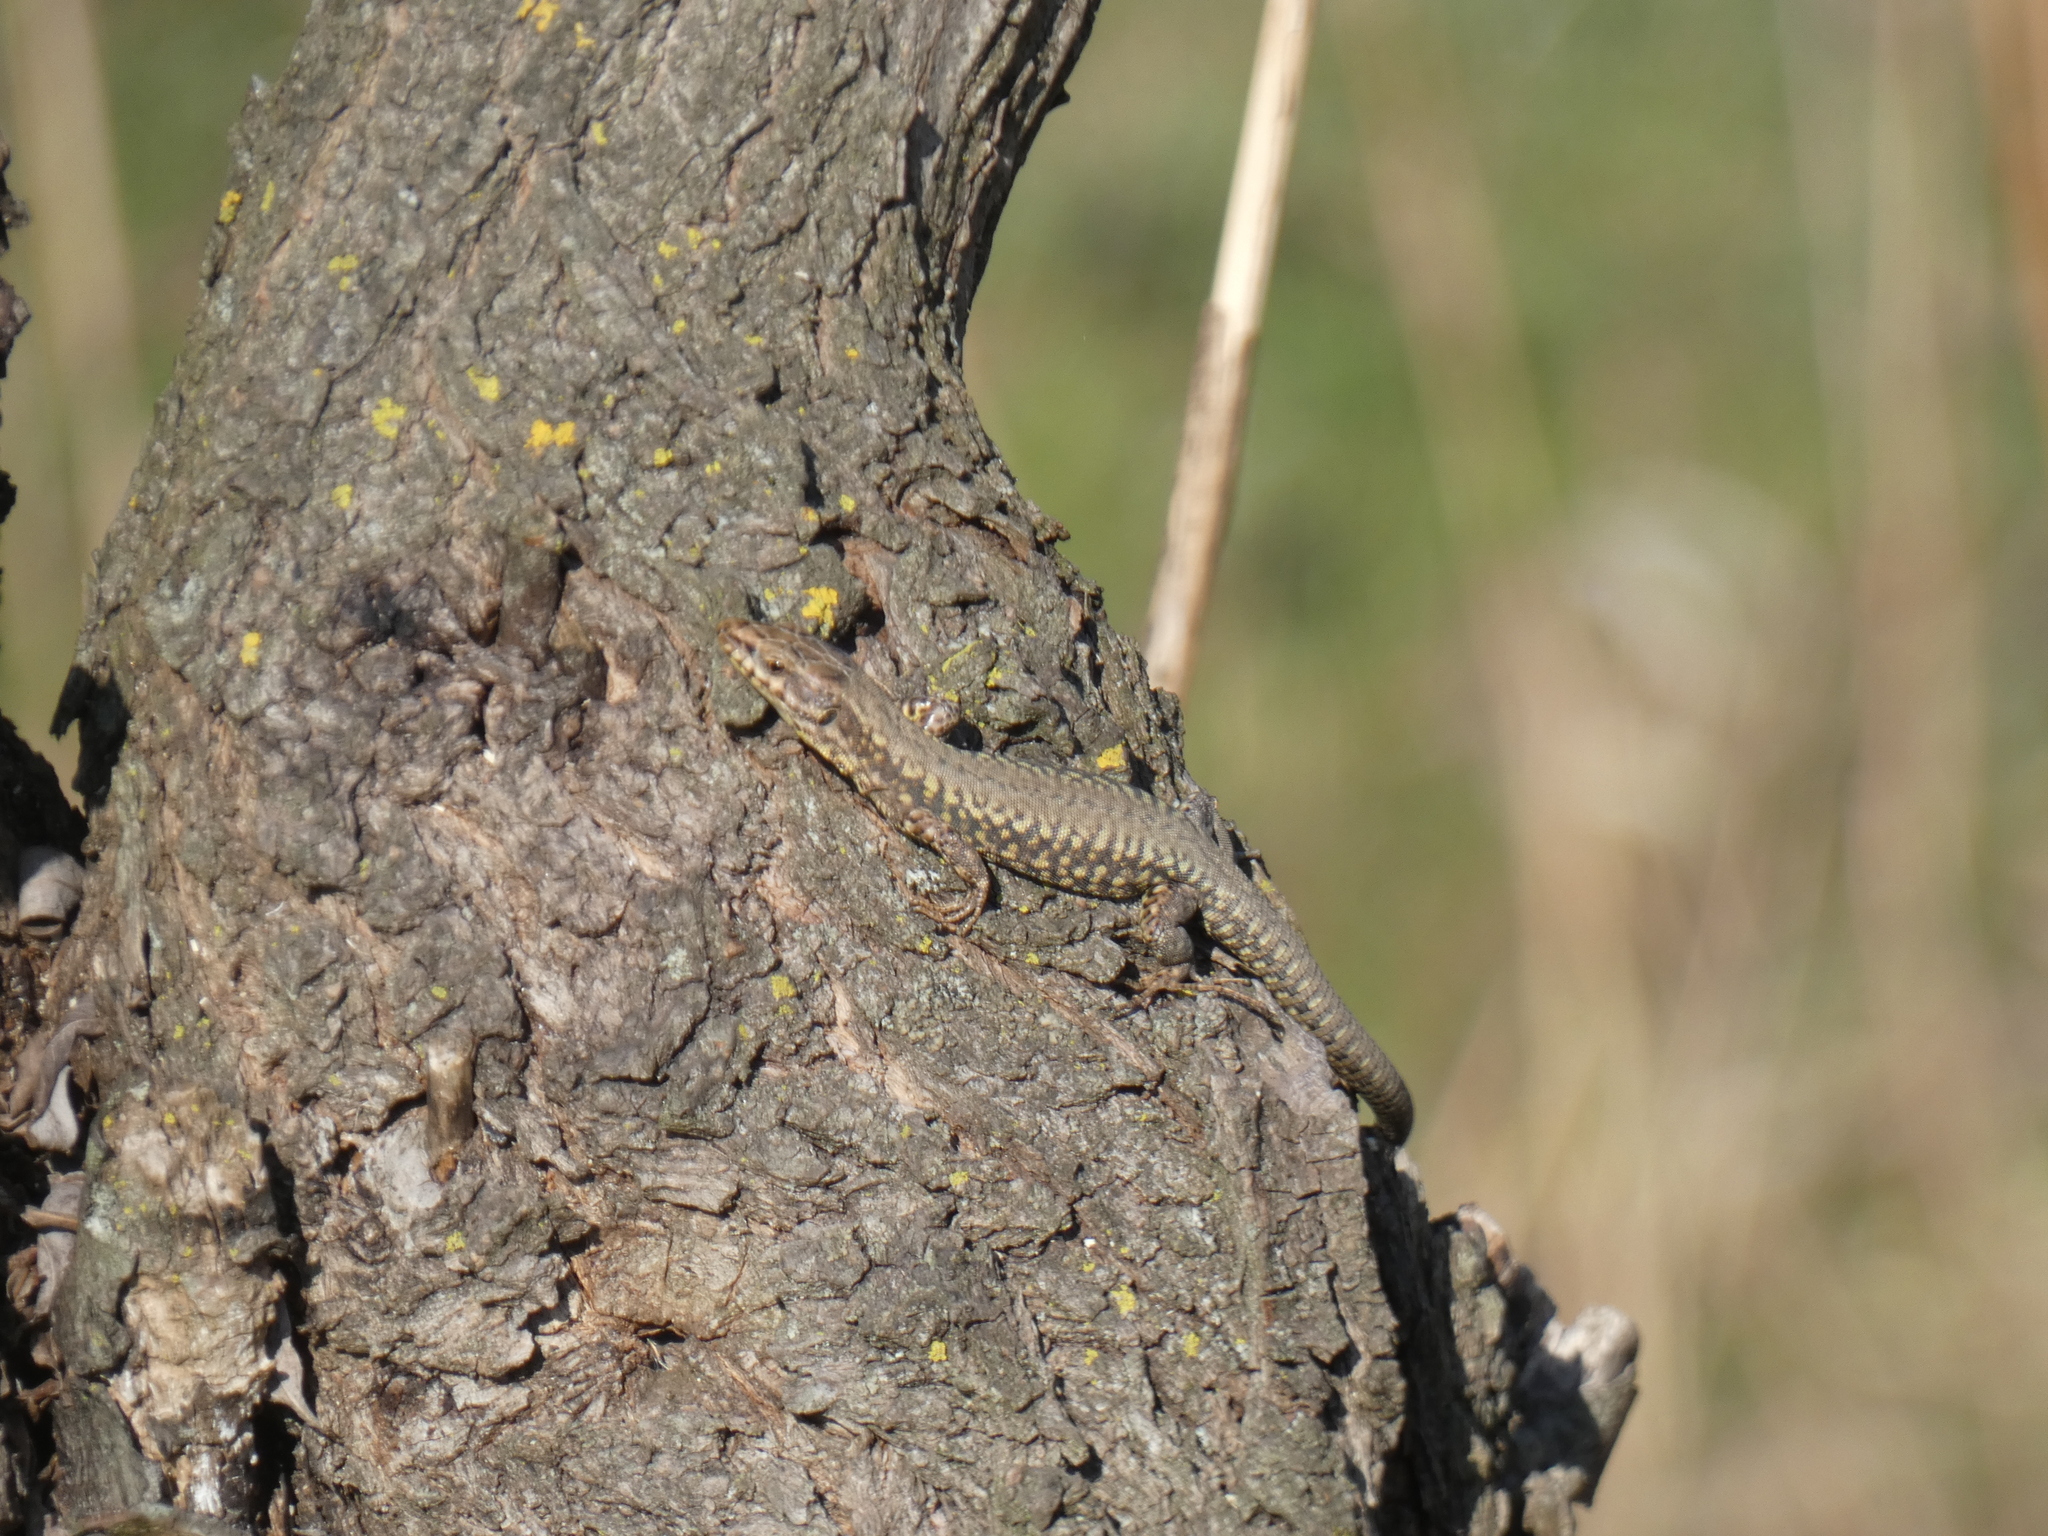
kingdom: Animalia
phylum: Chordata
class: Squamata
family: Lacertidae
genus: Podarcis
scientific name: Podarcis muralis
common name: Common wall lizard
